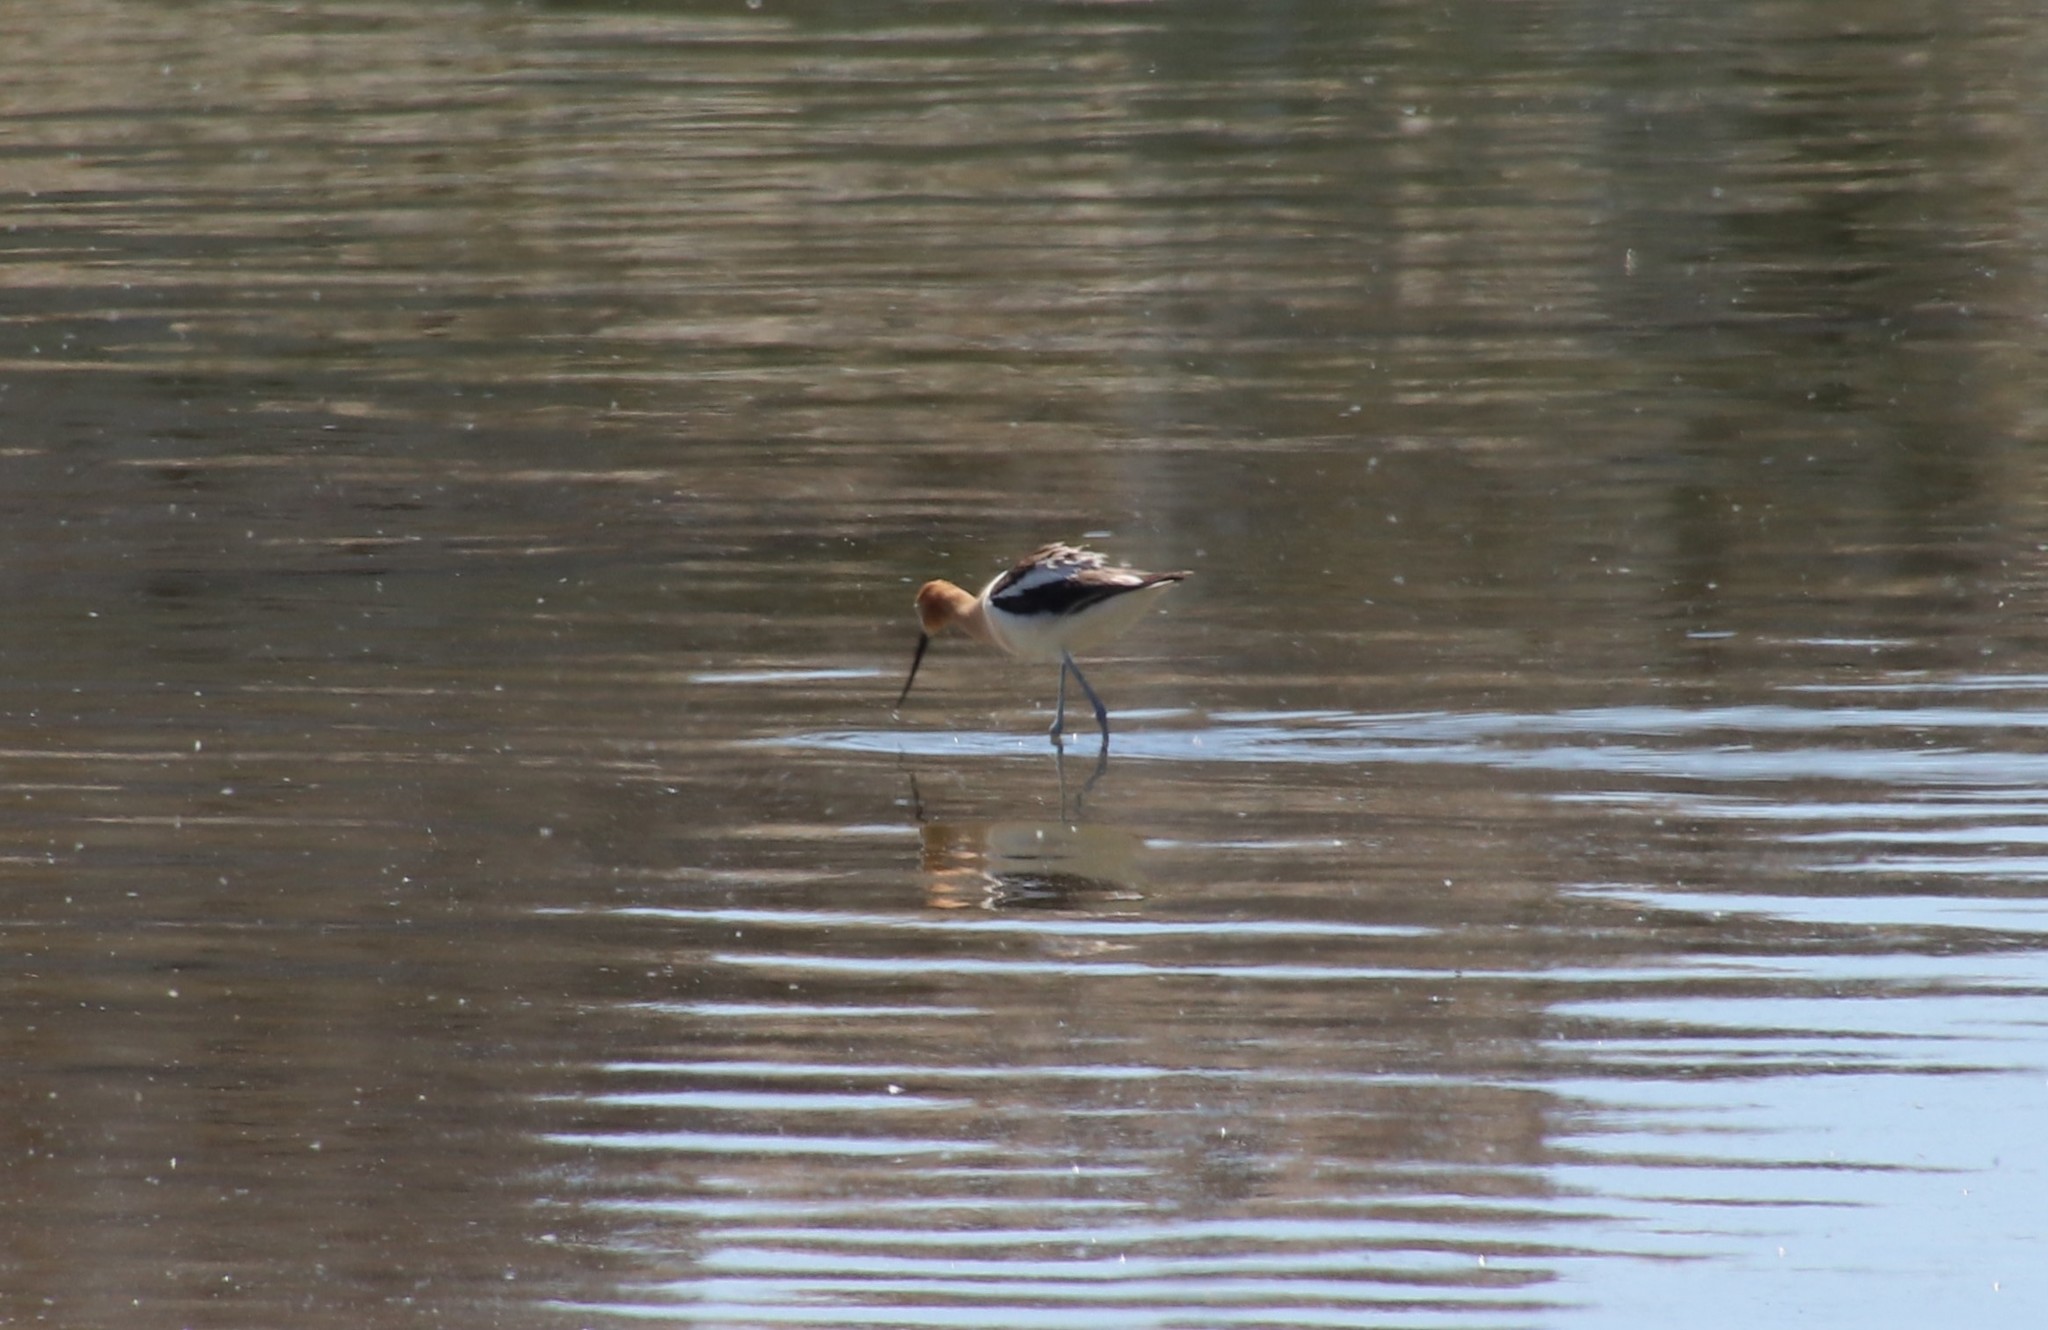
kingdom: Animalia
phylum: Chordata
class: Aves
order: Charadriiformes
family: Recurvirostridae
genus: Recurvirostra
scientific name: Recurvirostra americana
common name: American avocet
